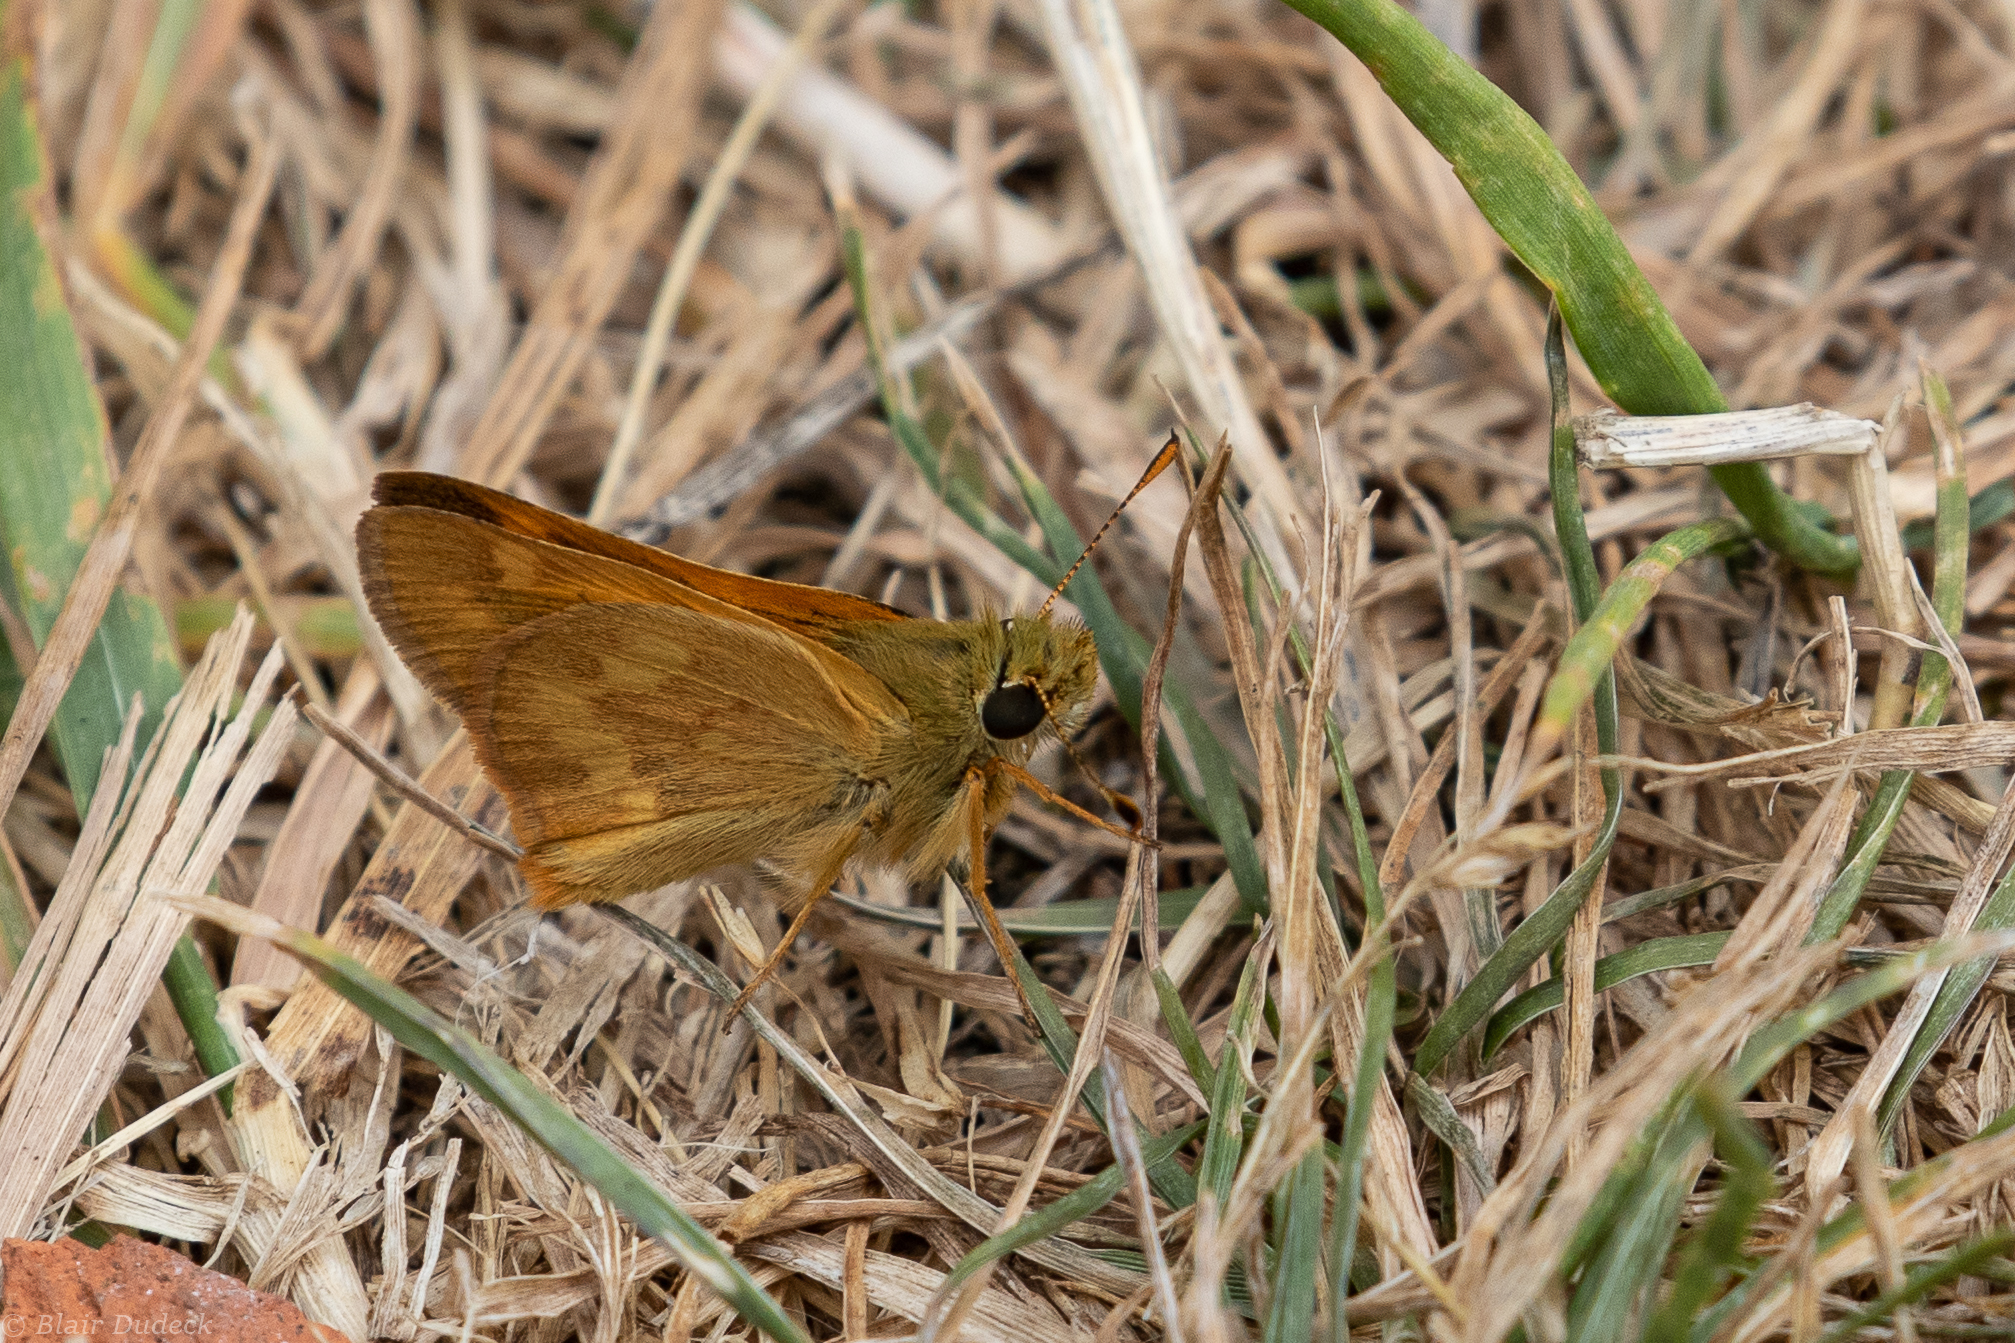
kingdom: Animalia
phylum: Arthropoda
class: Insecta
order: Lepidoptera
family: Hesperiidae
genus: Ochlodes
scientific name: Ochlodes sylvanoides
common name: Woodland skipper
